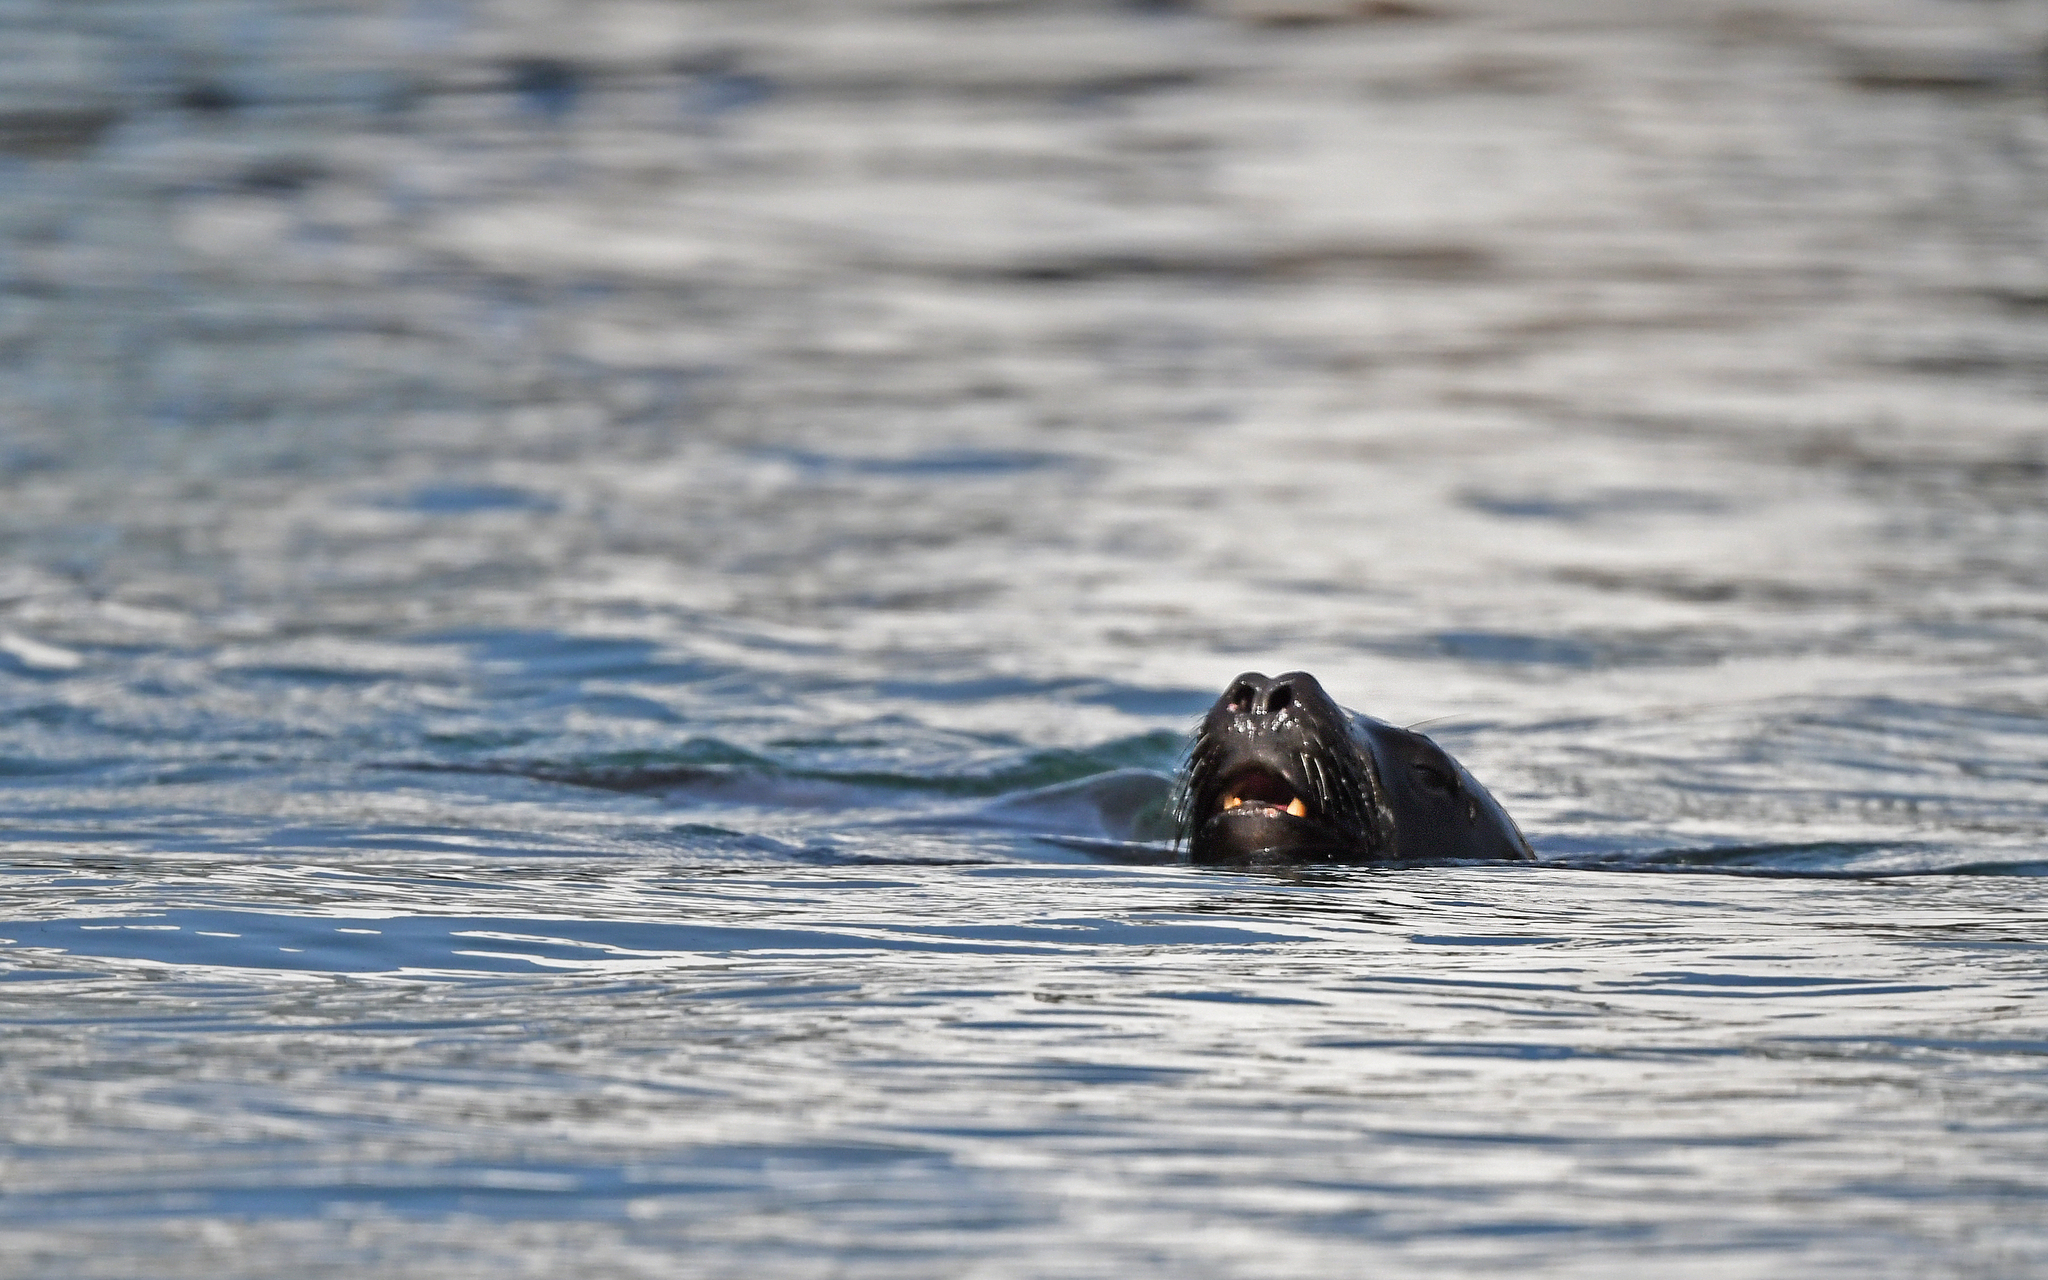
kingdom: Animalia
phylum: Chordata
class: Mammalia
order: Carnivora
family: Otariidae
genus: Otaria
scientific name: Otaria byronia
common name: South american sea lion
